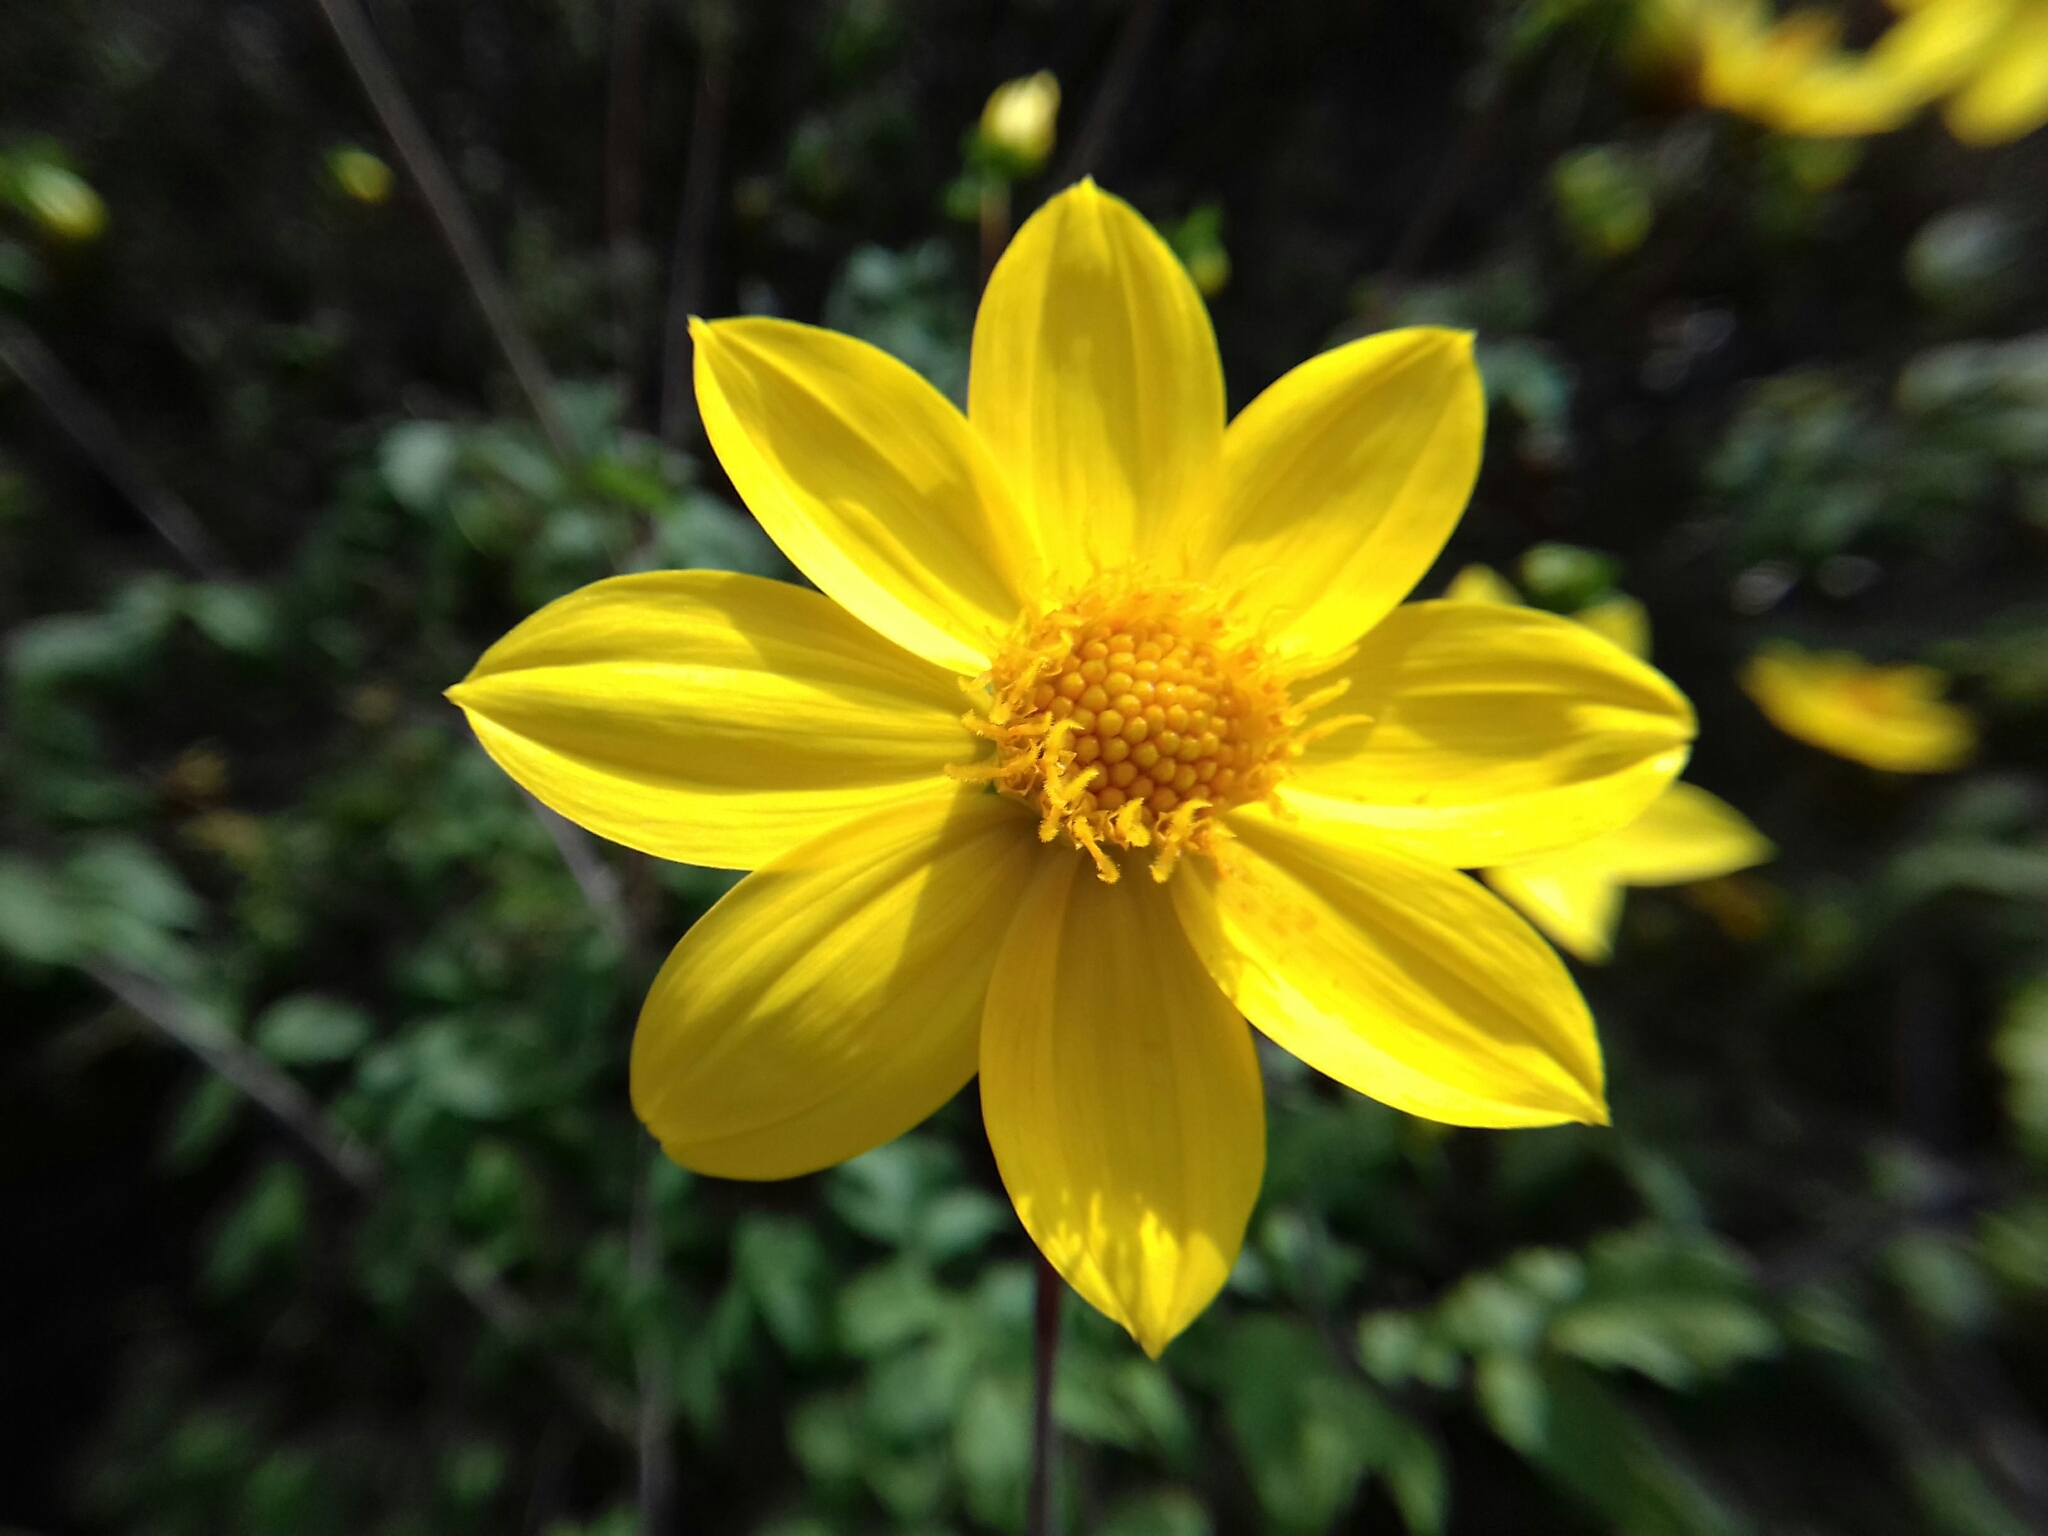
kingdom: Plantae
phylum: Tracheophyta
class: Magnoliopsida
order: Asterales
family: Asteraceae
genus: Dahlia
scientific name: Dahlia coccinea
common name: Red dahlia
